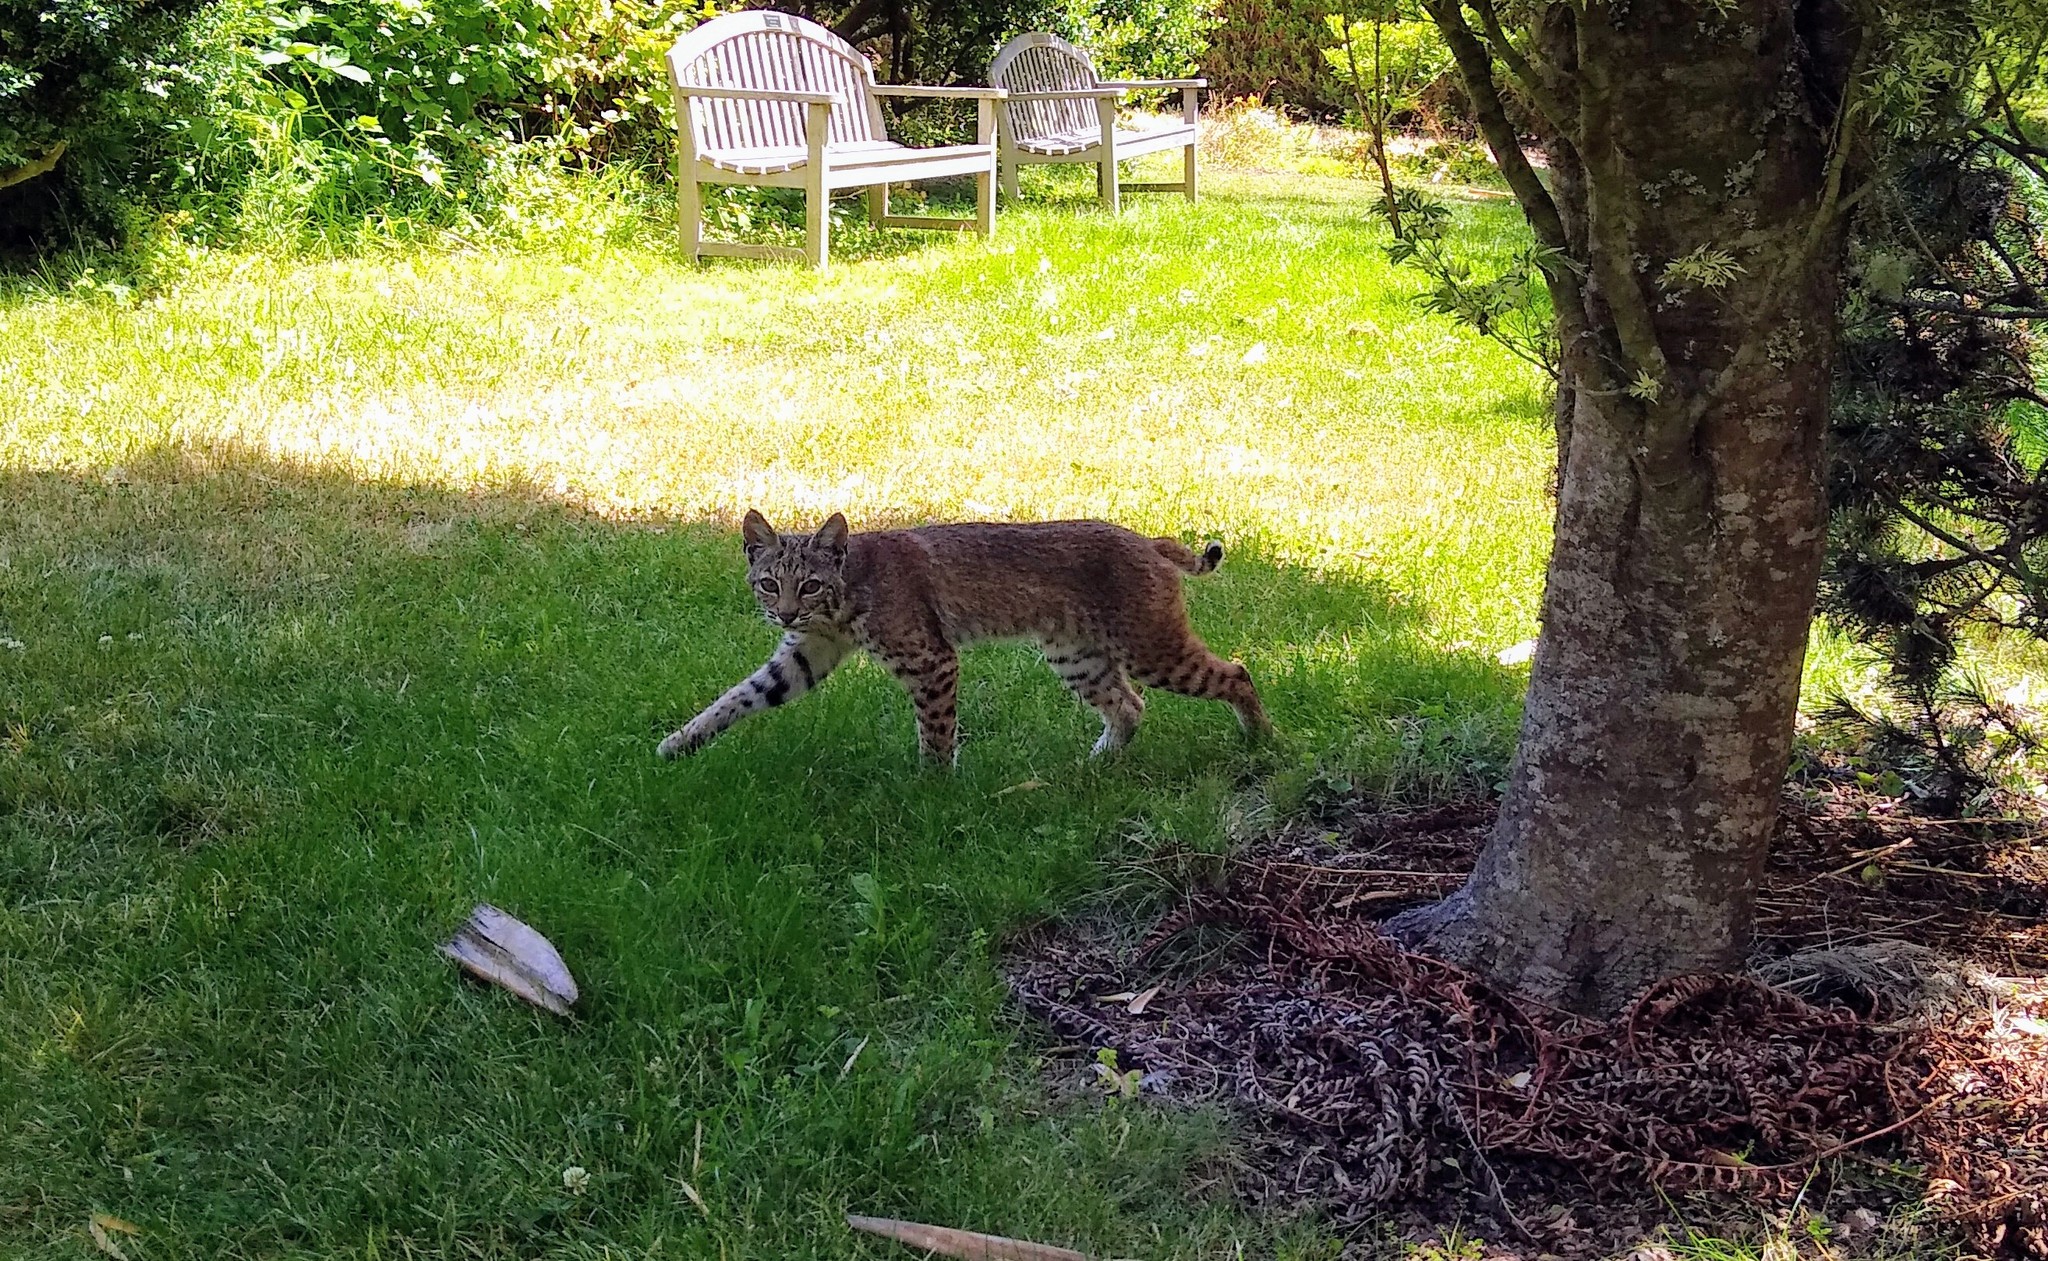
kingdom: Animalia
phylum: Chordata
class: Mammalia
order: Carnivora
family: Felidae
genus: Lynx
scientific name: Lynx rufus
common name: Bobcat
